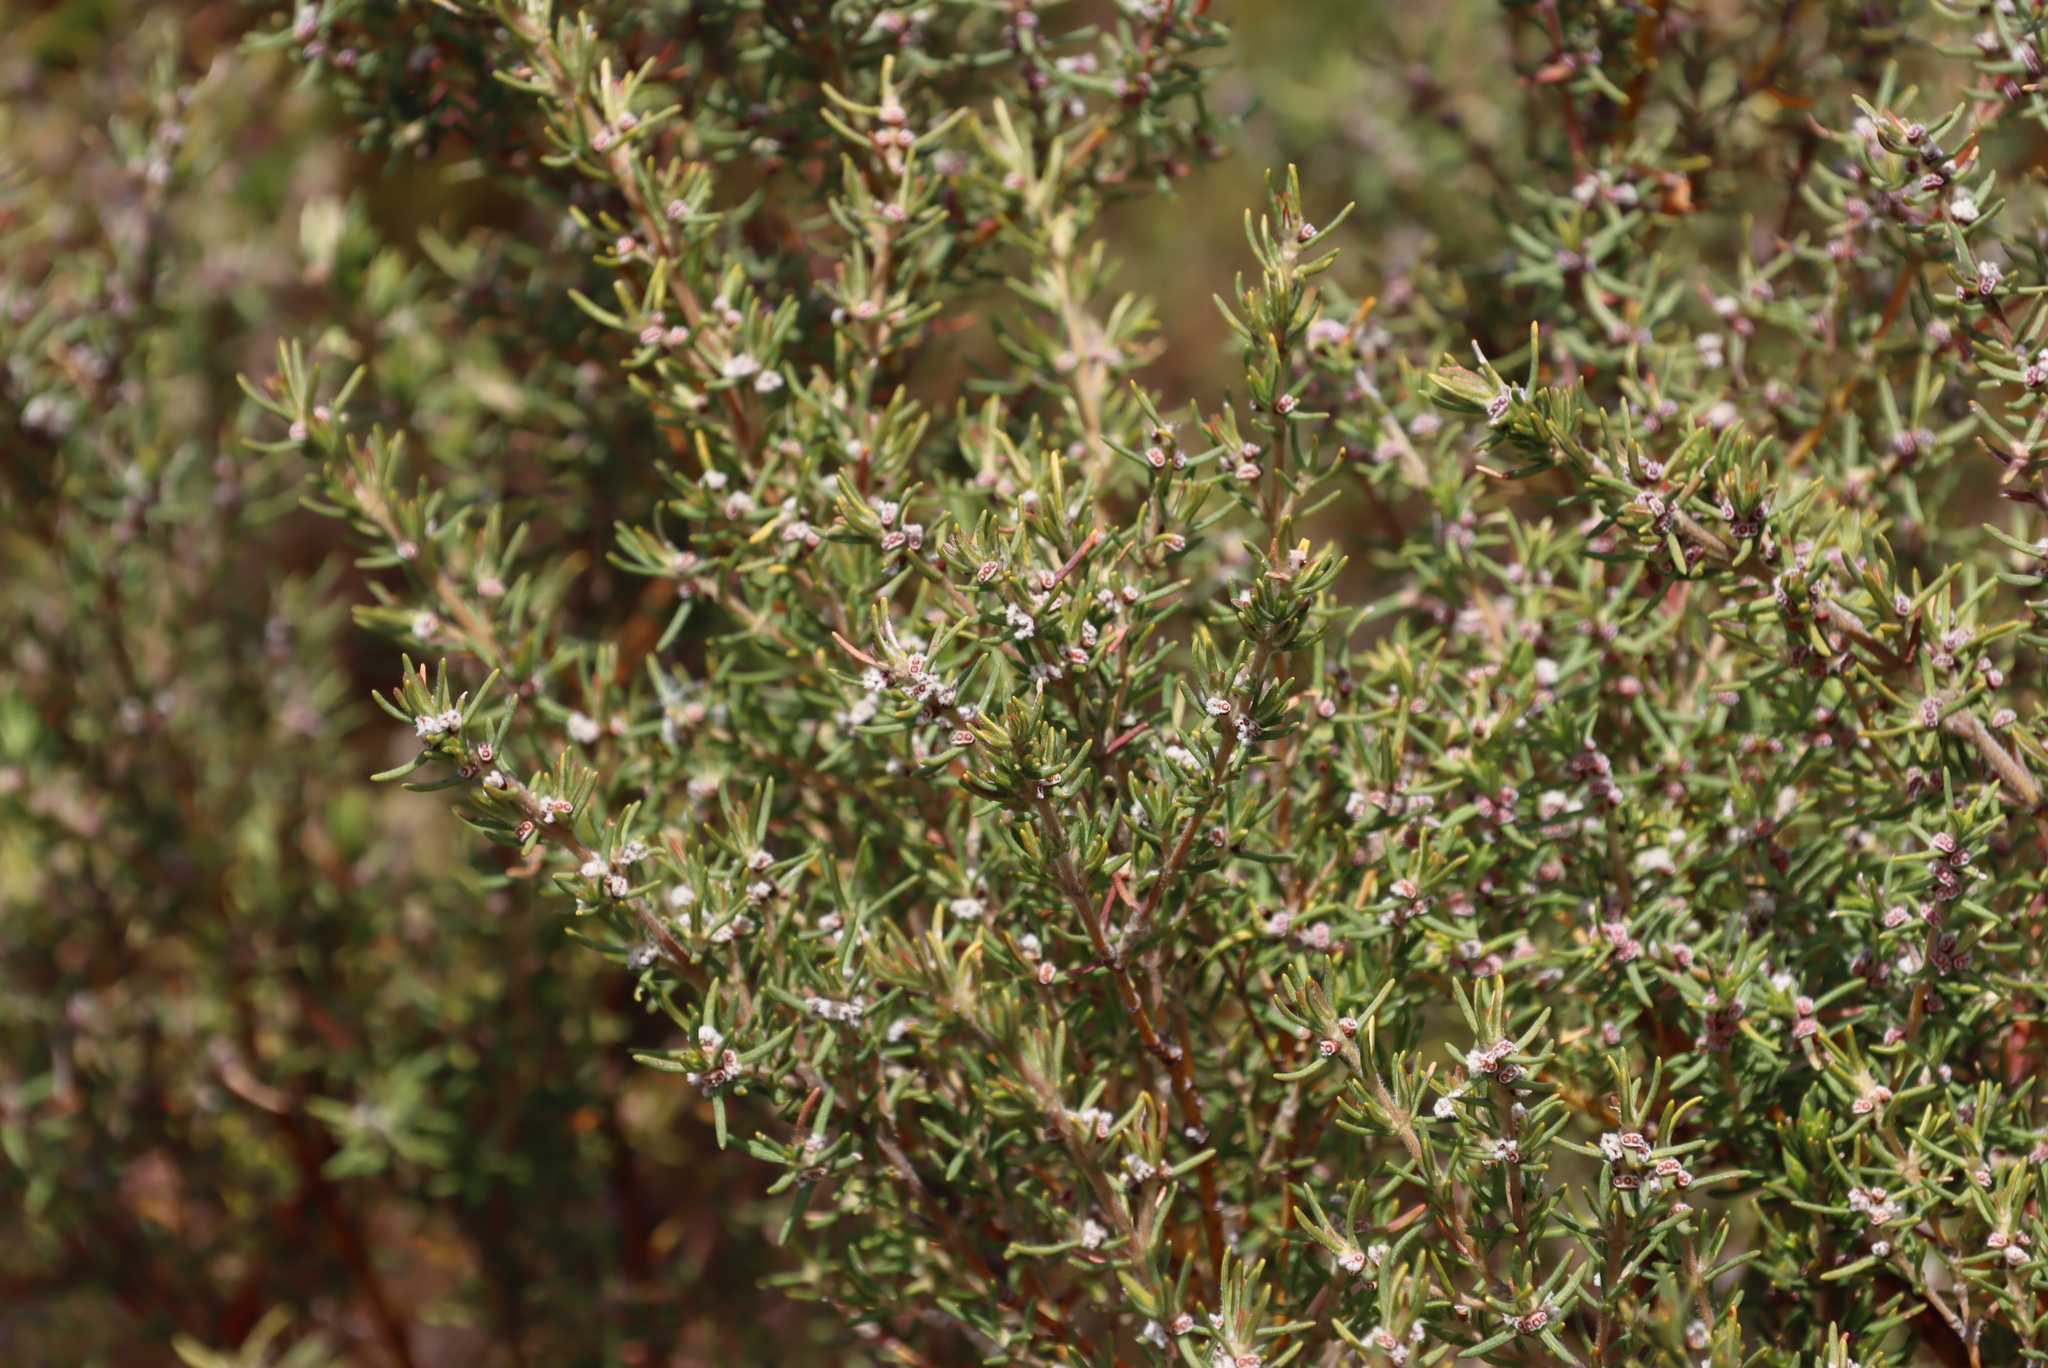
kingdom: Plantae
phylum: Tracheophyta
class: Magnoliopsida
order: Cornales
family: Grubbiaceae
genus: Grubbia
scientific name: Grubbia rosmarinifolia
